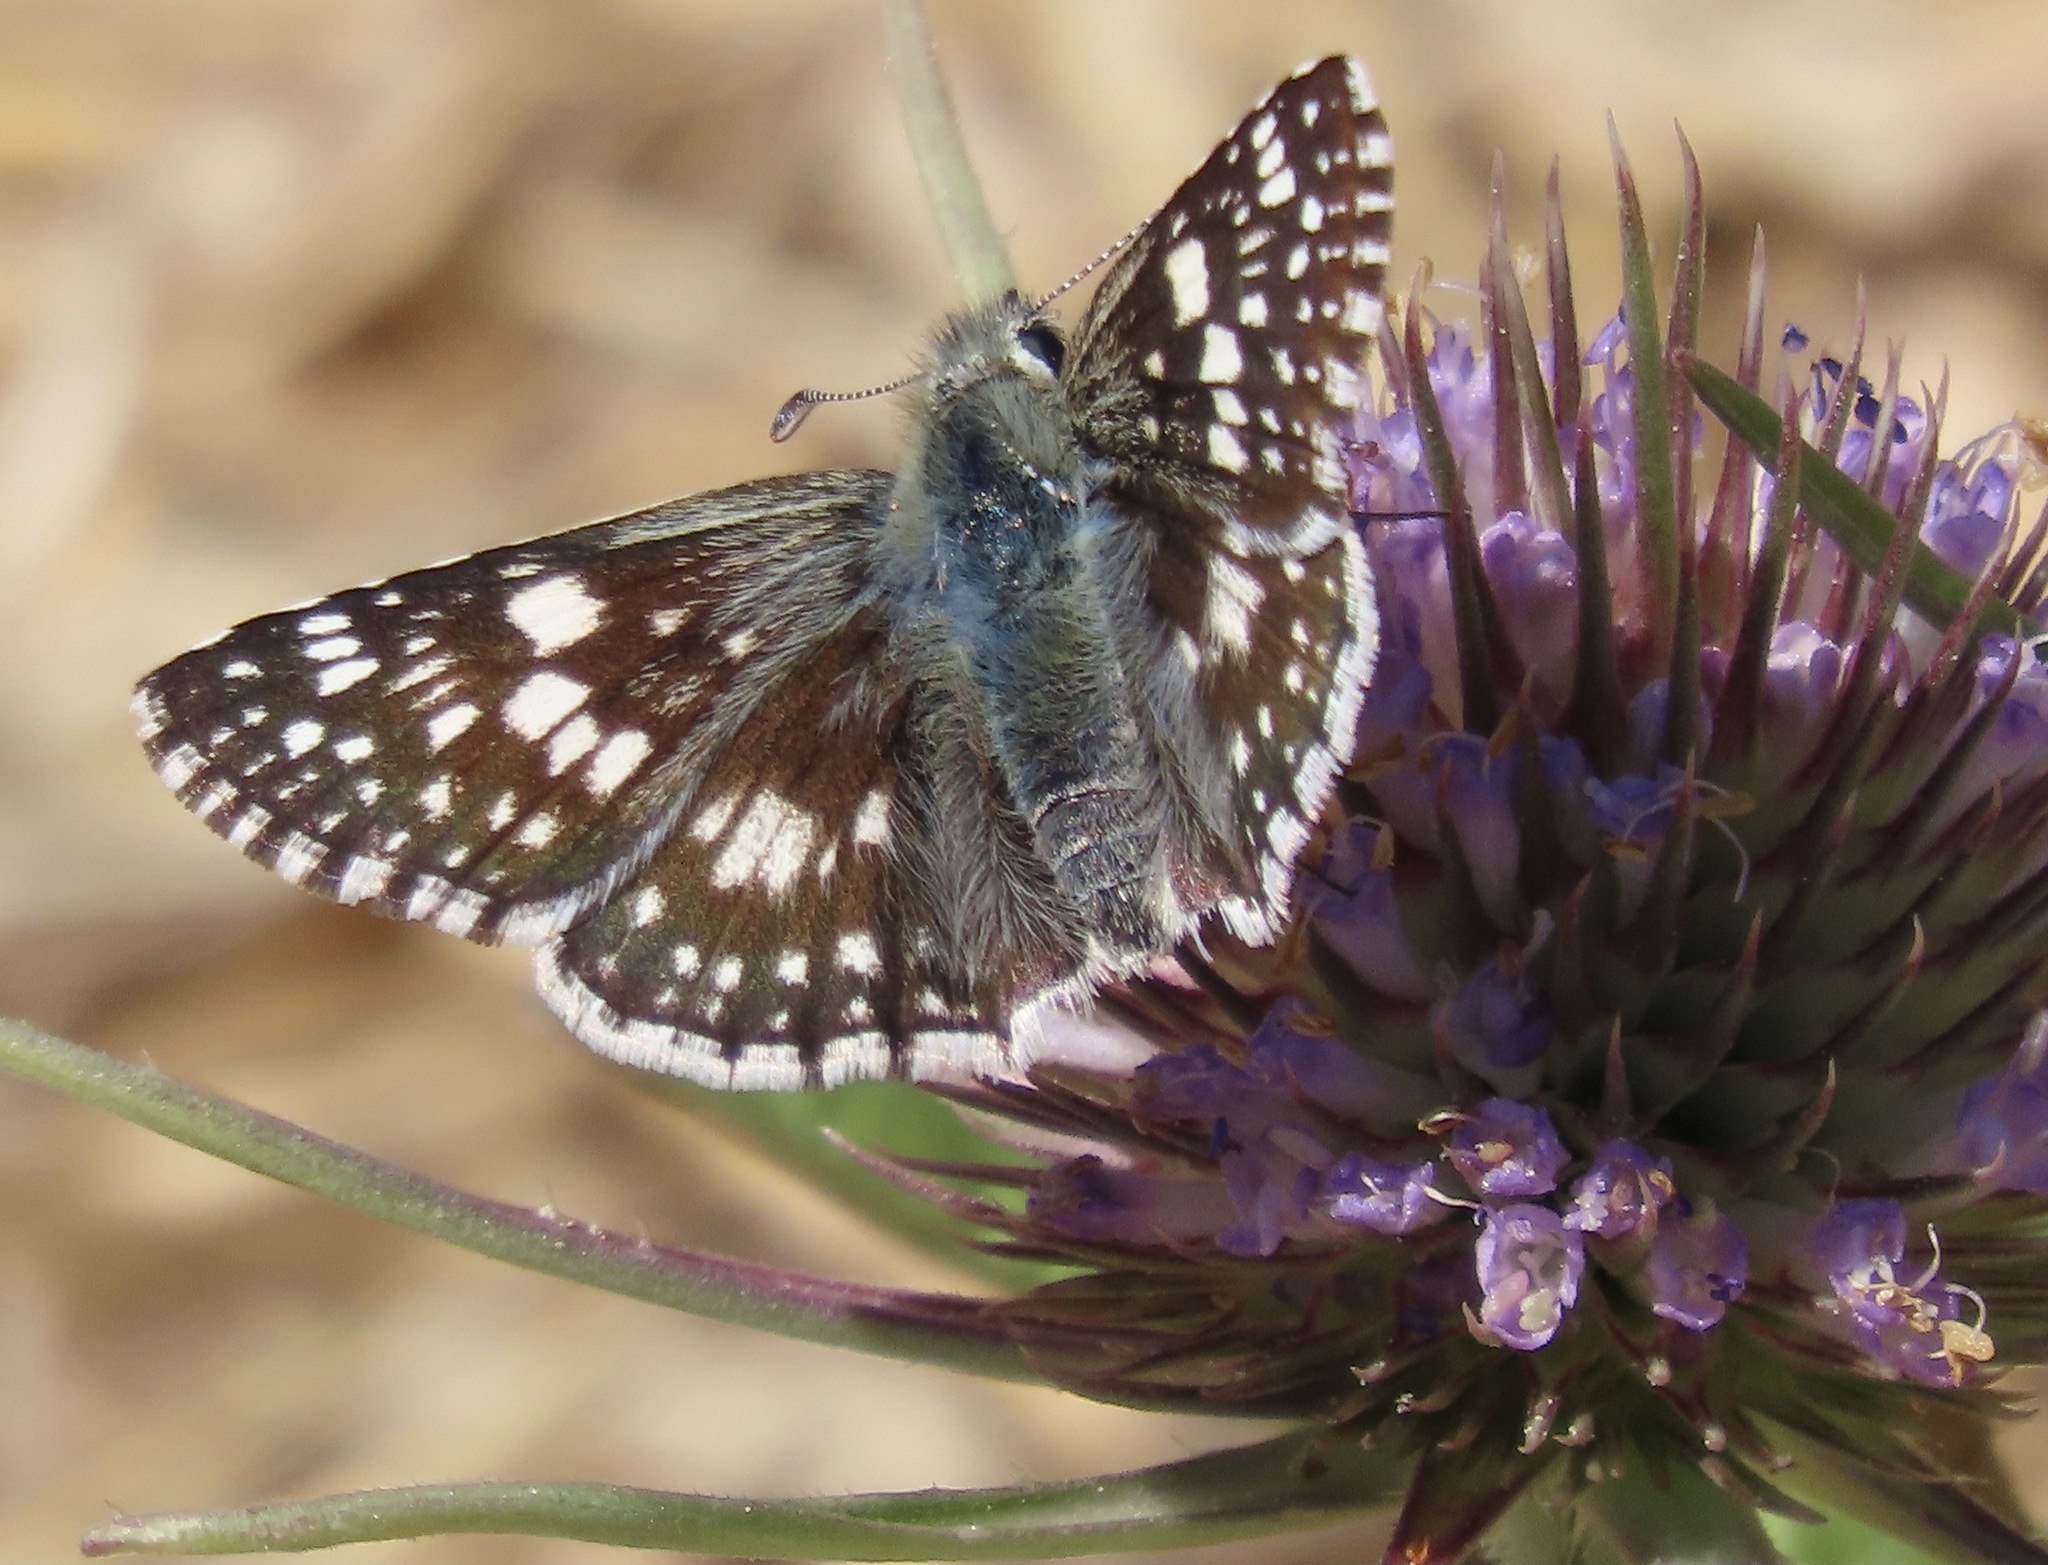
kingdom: Animalia
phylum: Arthropoda
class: Insecta
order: Lepidoptera
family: Hesperiidae
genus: Burnsius
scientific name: Burnsius communis
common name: Common checkered-skipper
